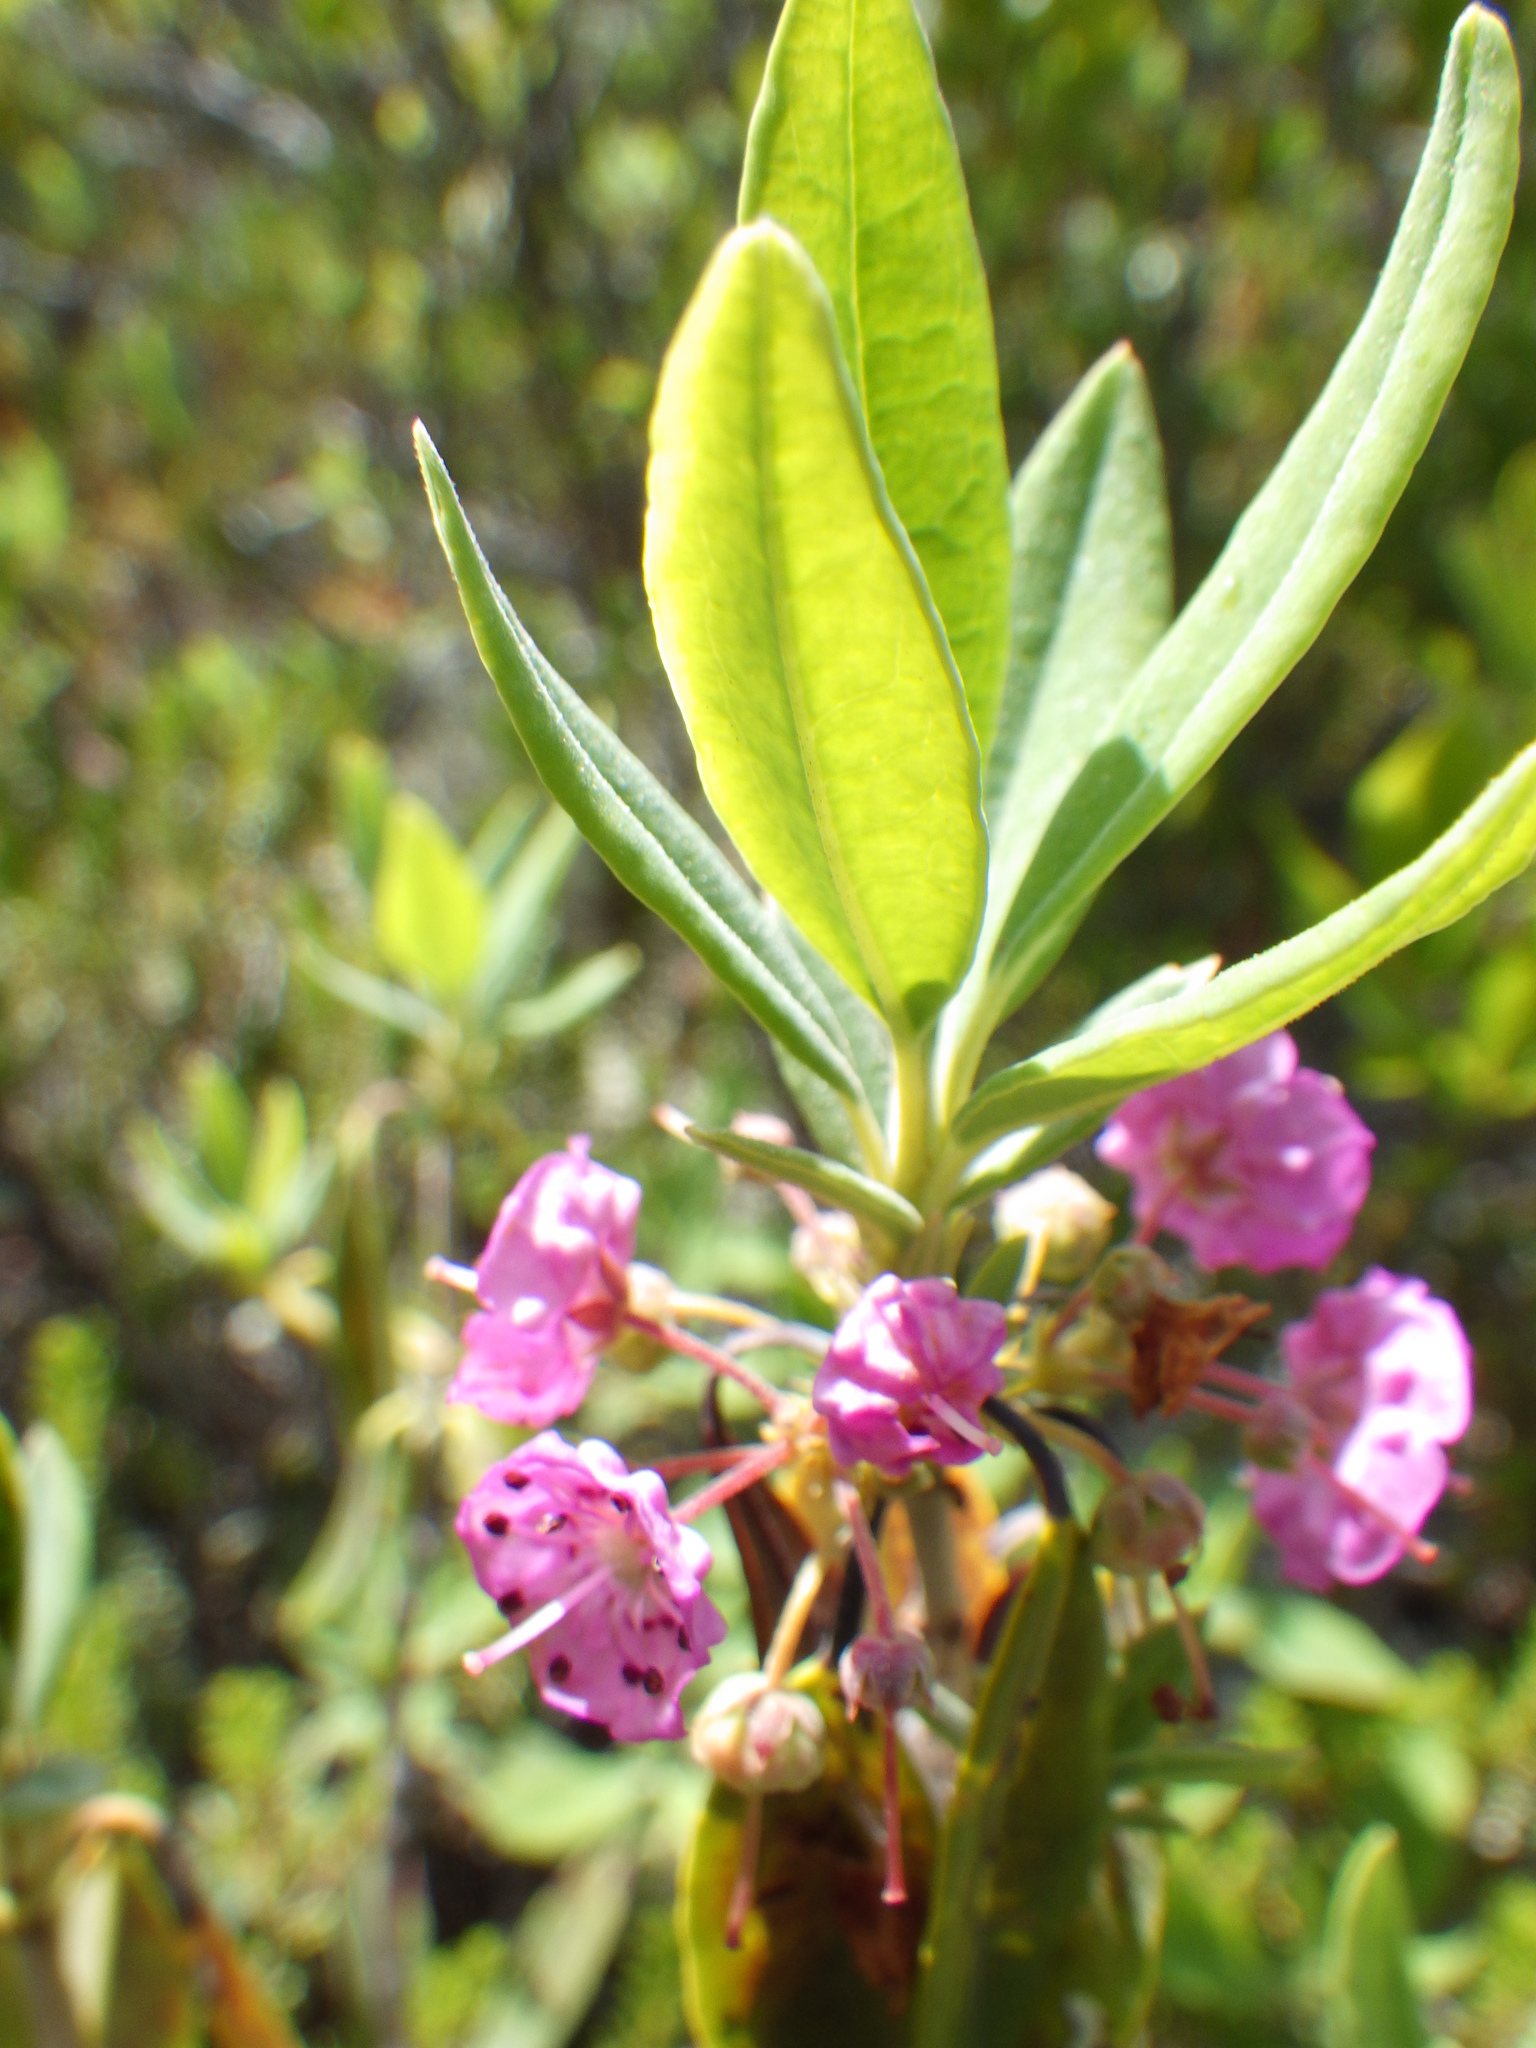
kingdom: Plantae
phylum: Tracheophyta
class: Magnoliopsida
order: Ericales
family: Ericaceae
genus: Kalmia
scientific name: Kalmia angustifolia
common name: Sheep-laurel
